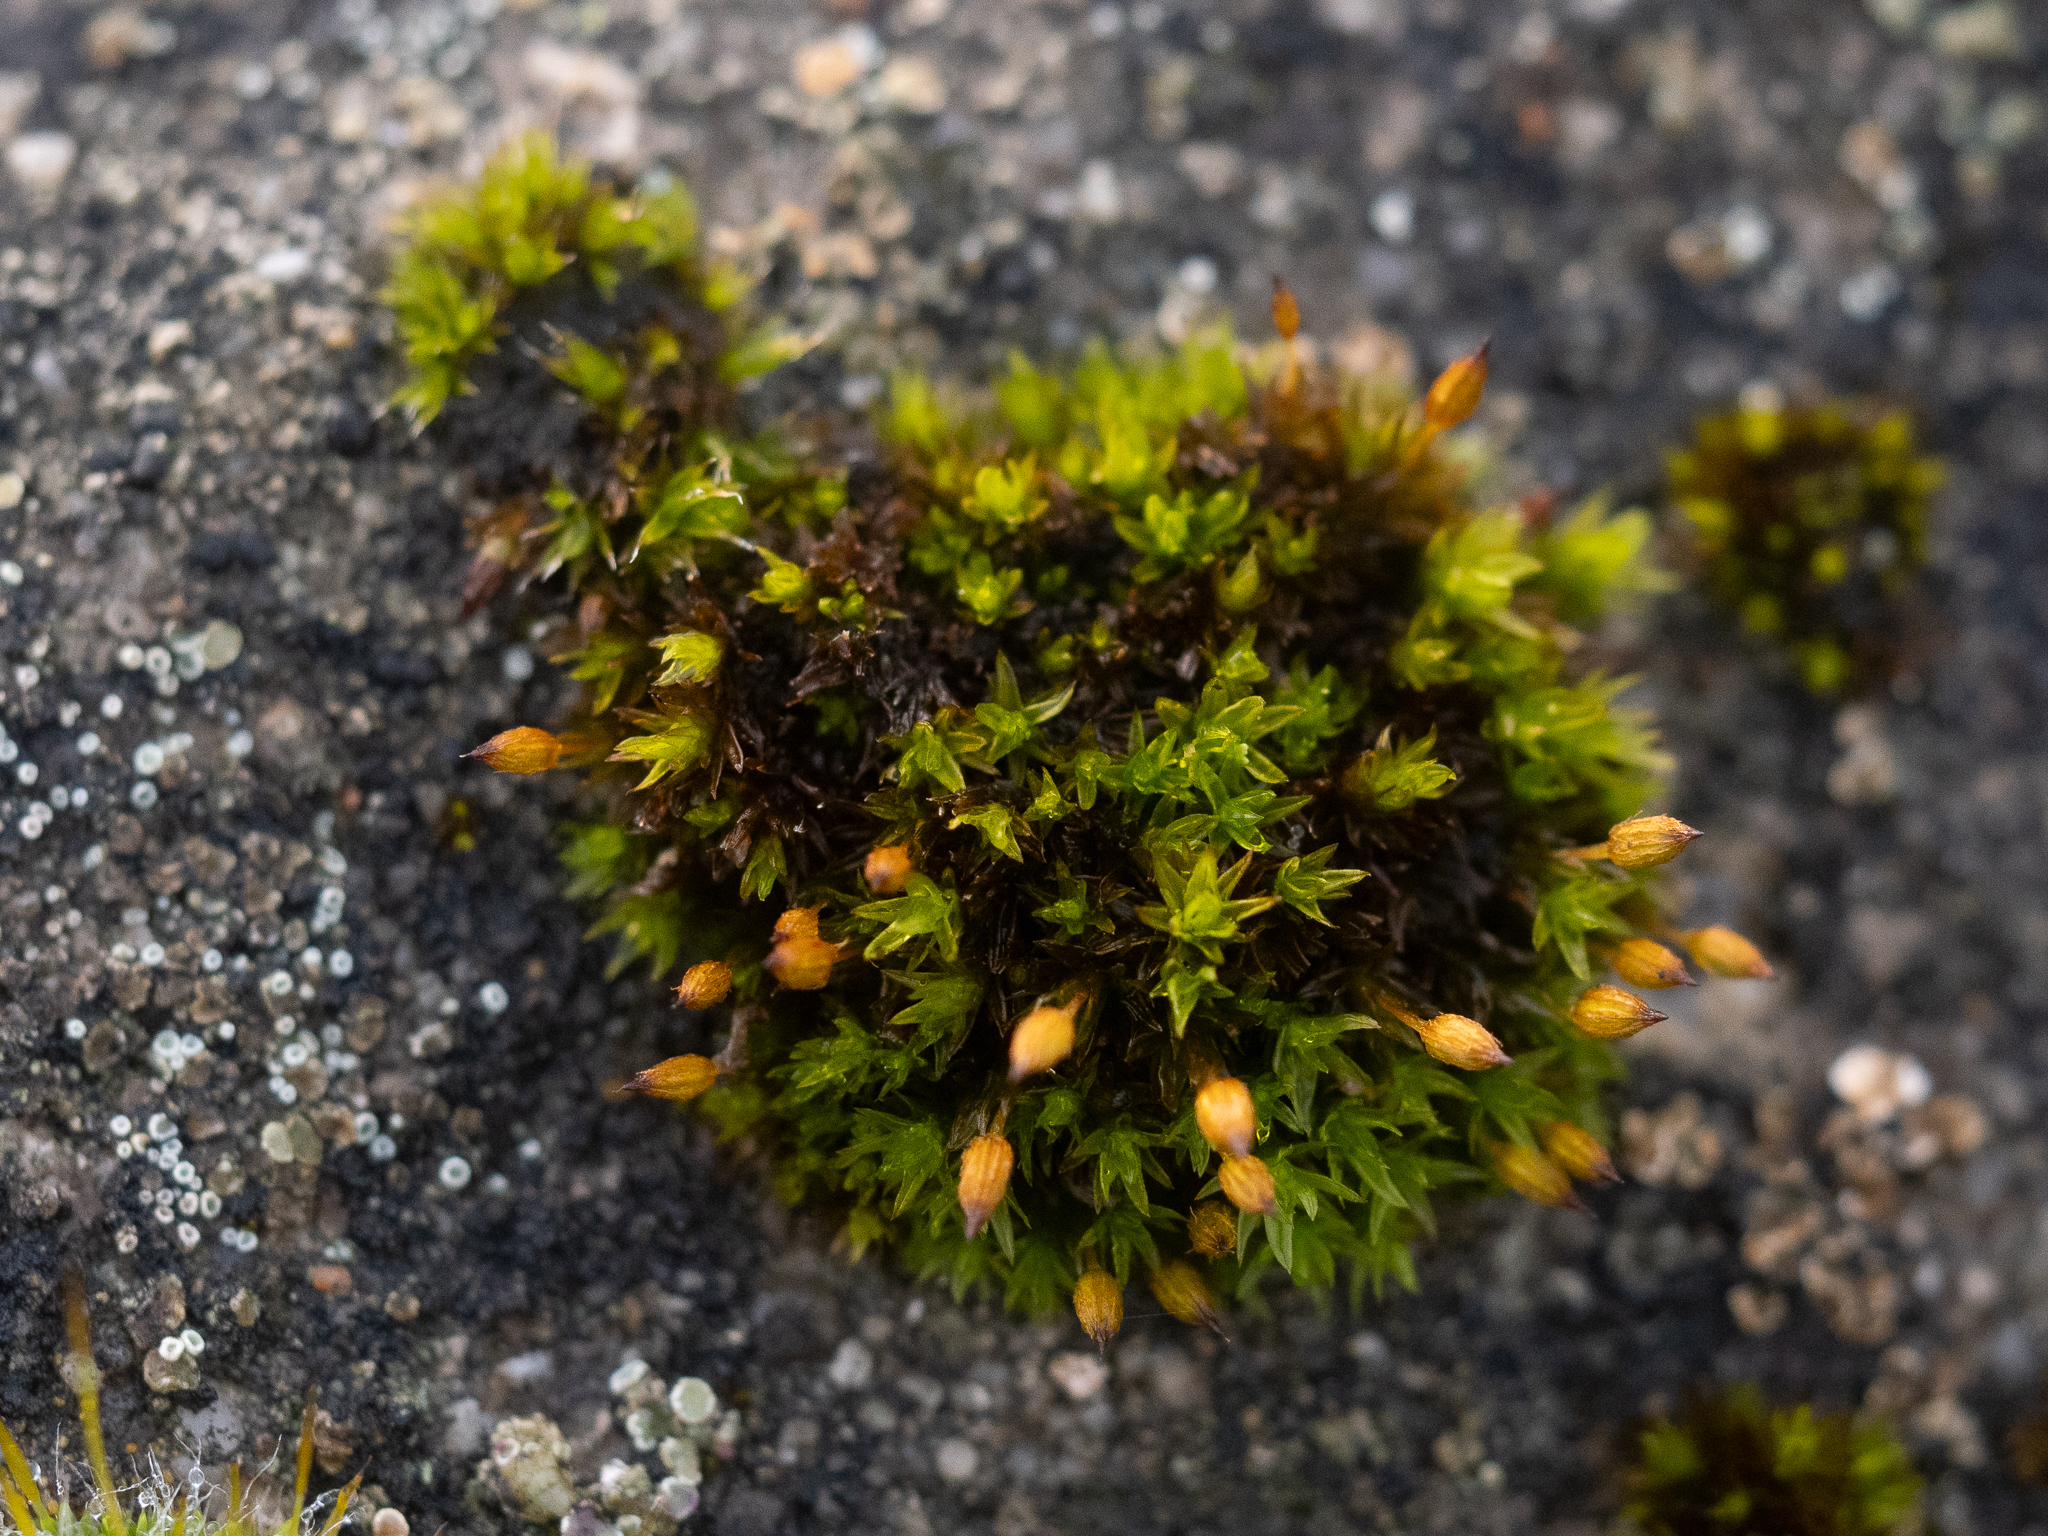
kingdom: Plantae
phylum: Bryophyta
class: Bryopsida
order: Orthotrichales
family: Orthotrichaceae
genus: Orthotrichum
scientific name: Orthotrichum anomalum
